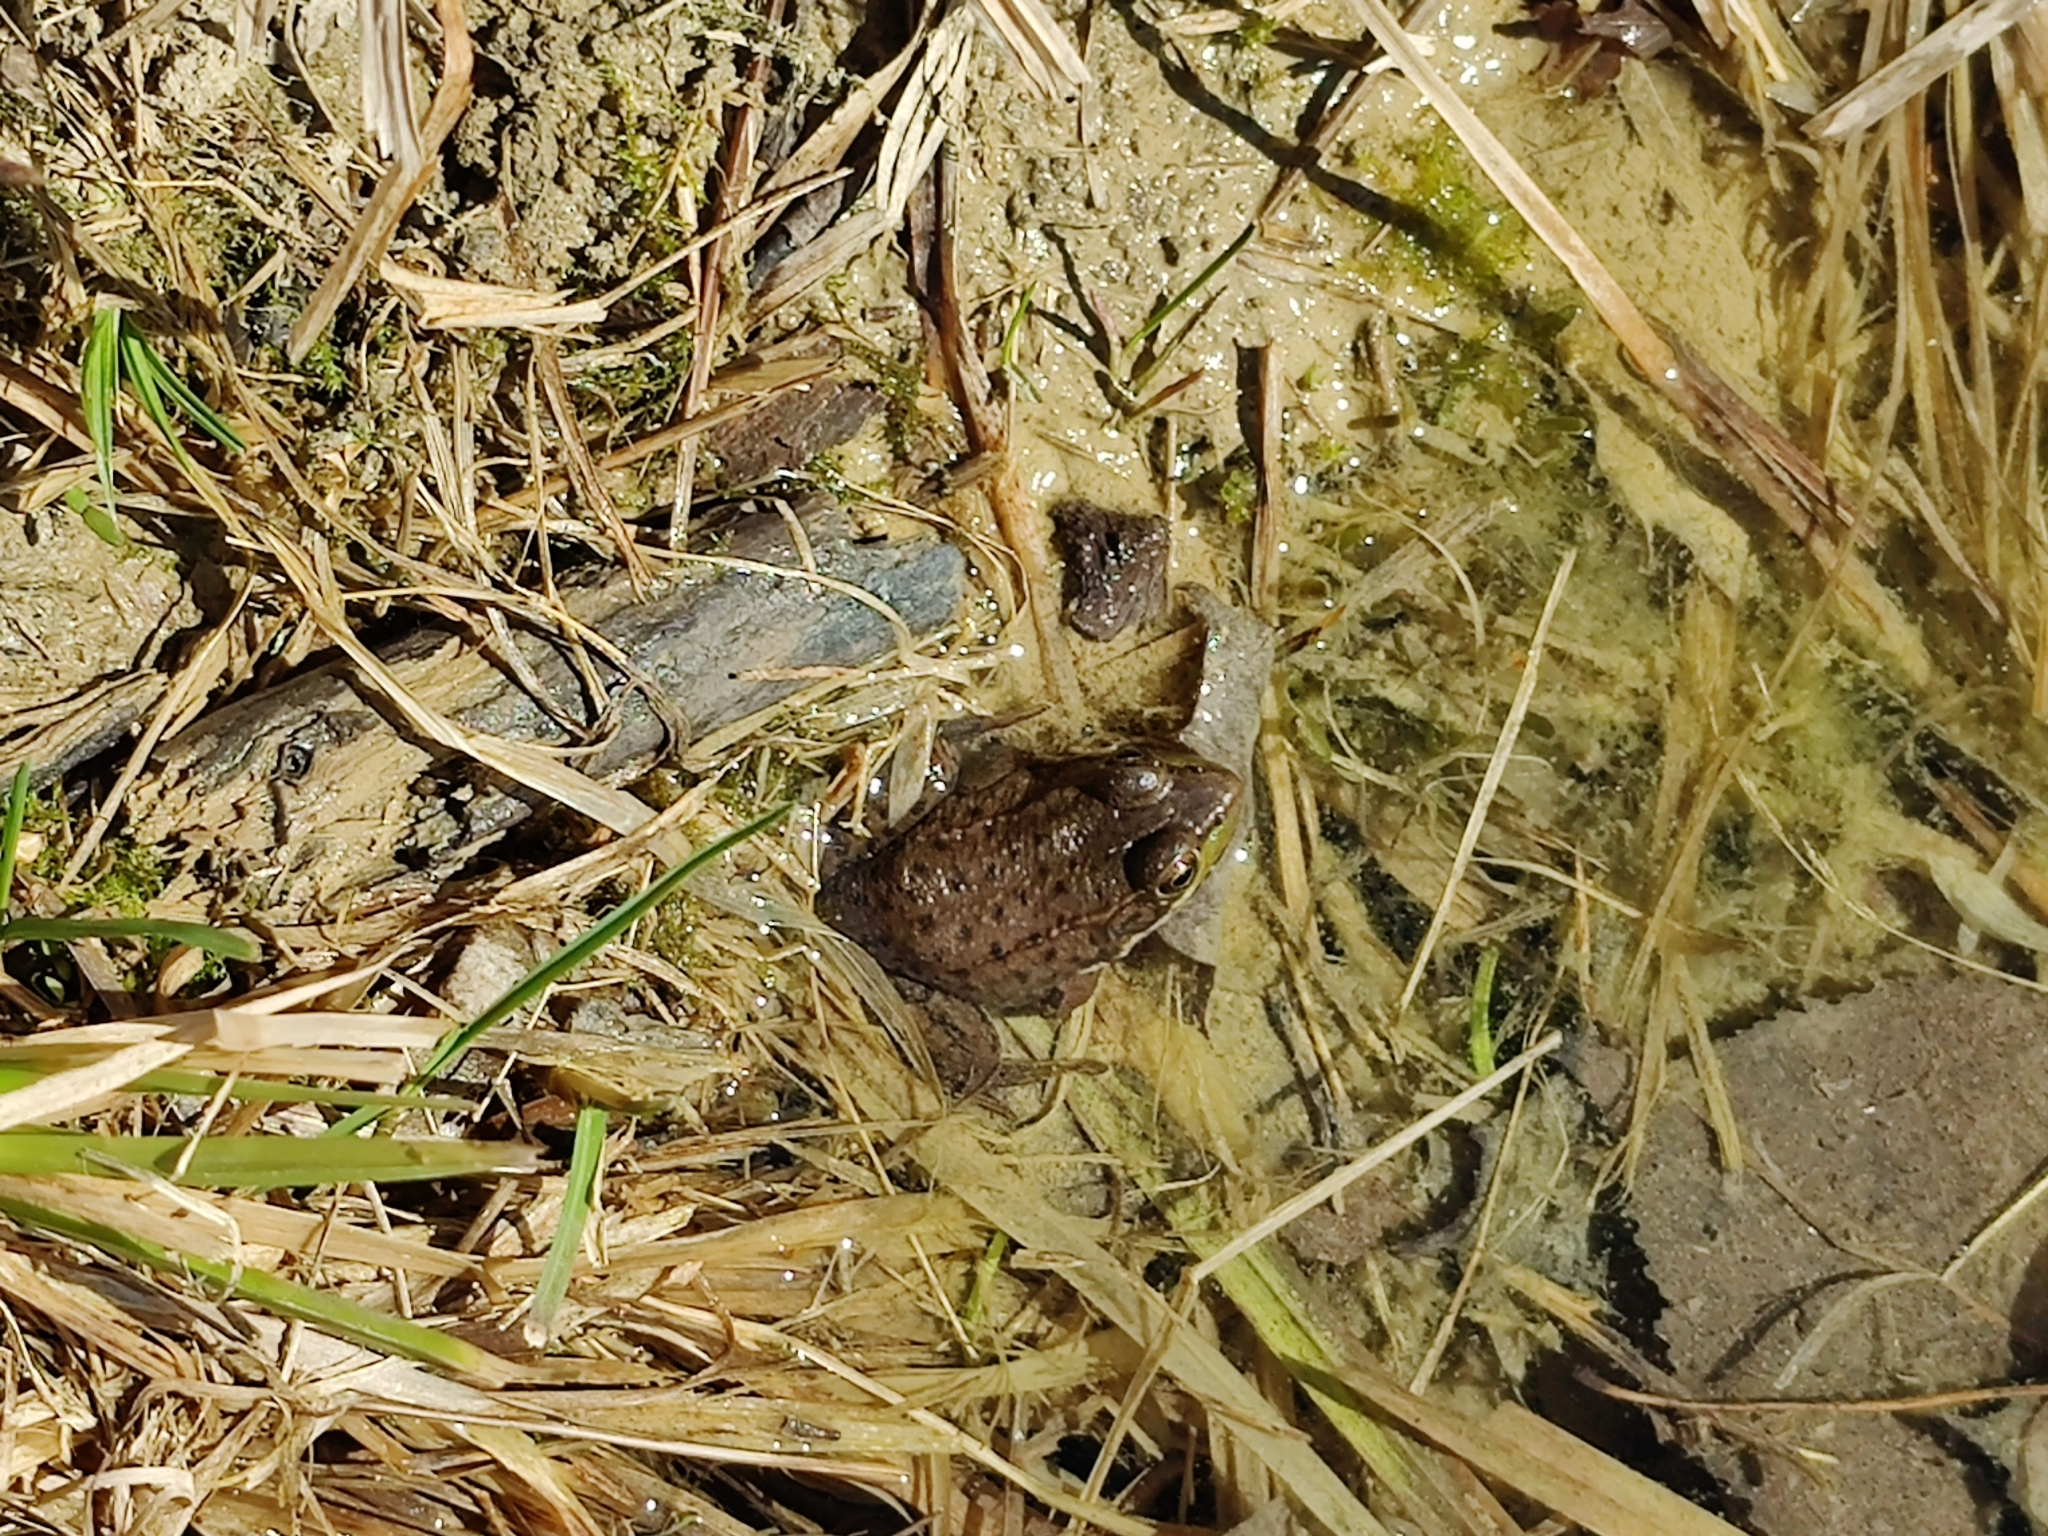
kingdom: Animalia
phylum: Chordata
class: Amphibia
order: Anura
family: Ranidae
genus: Lithobates
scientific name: Lithobates clamitans
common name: Green frog
